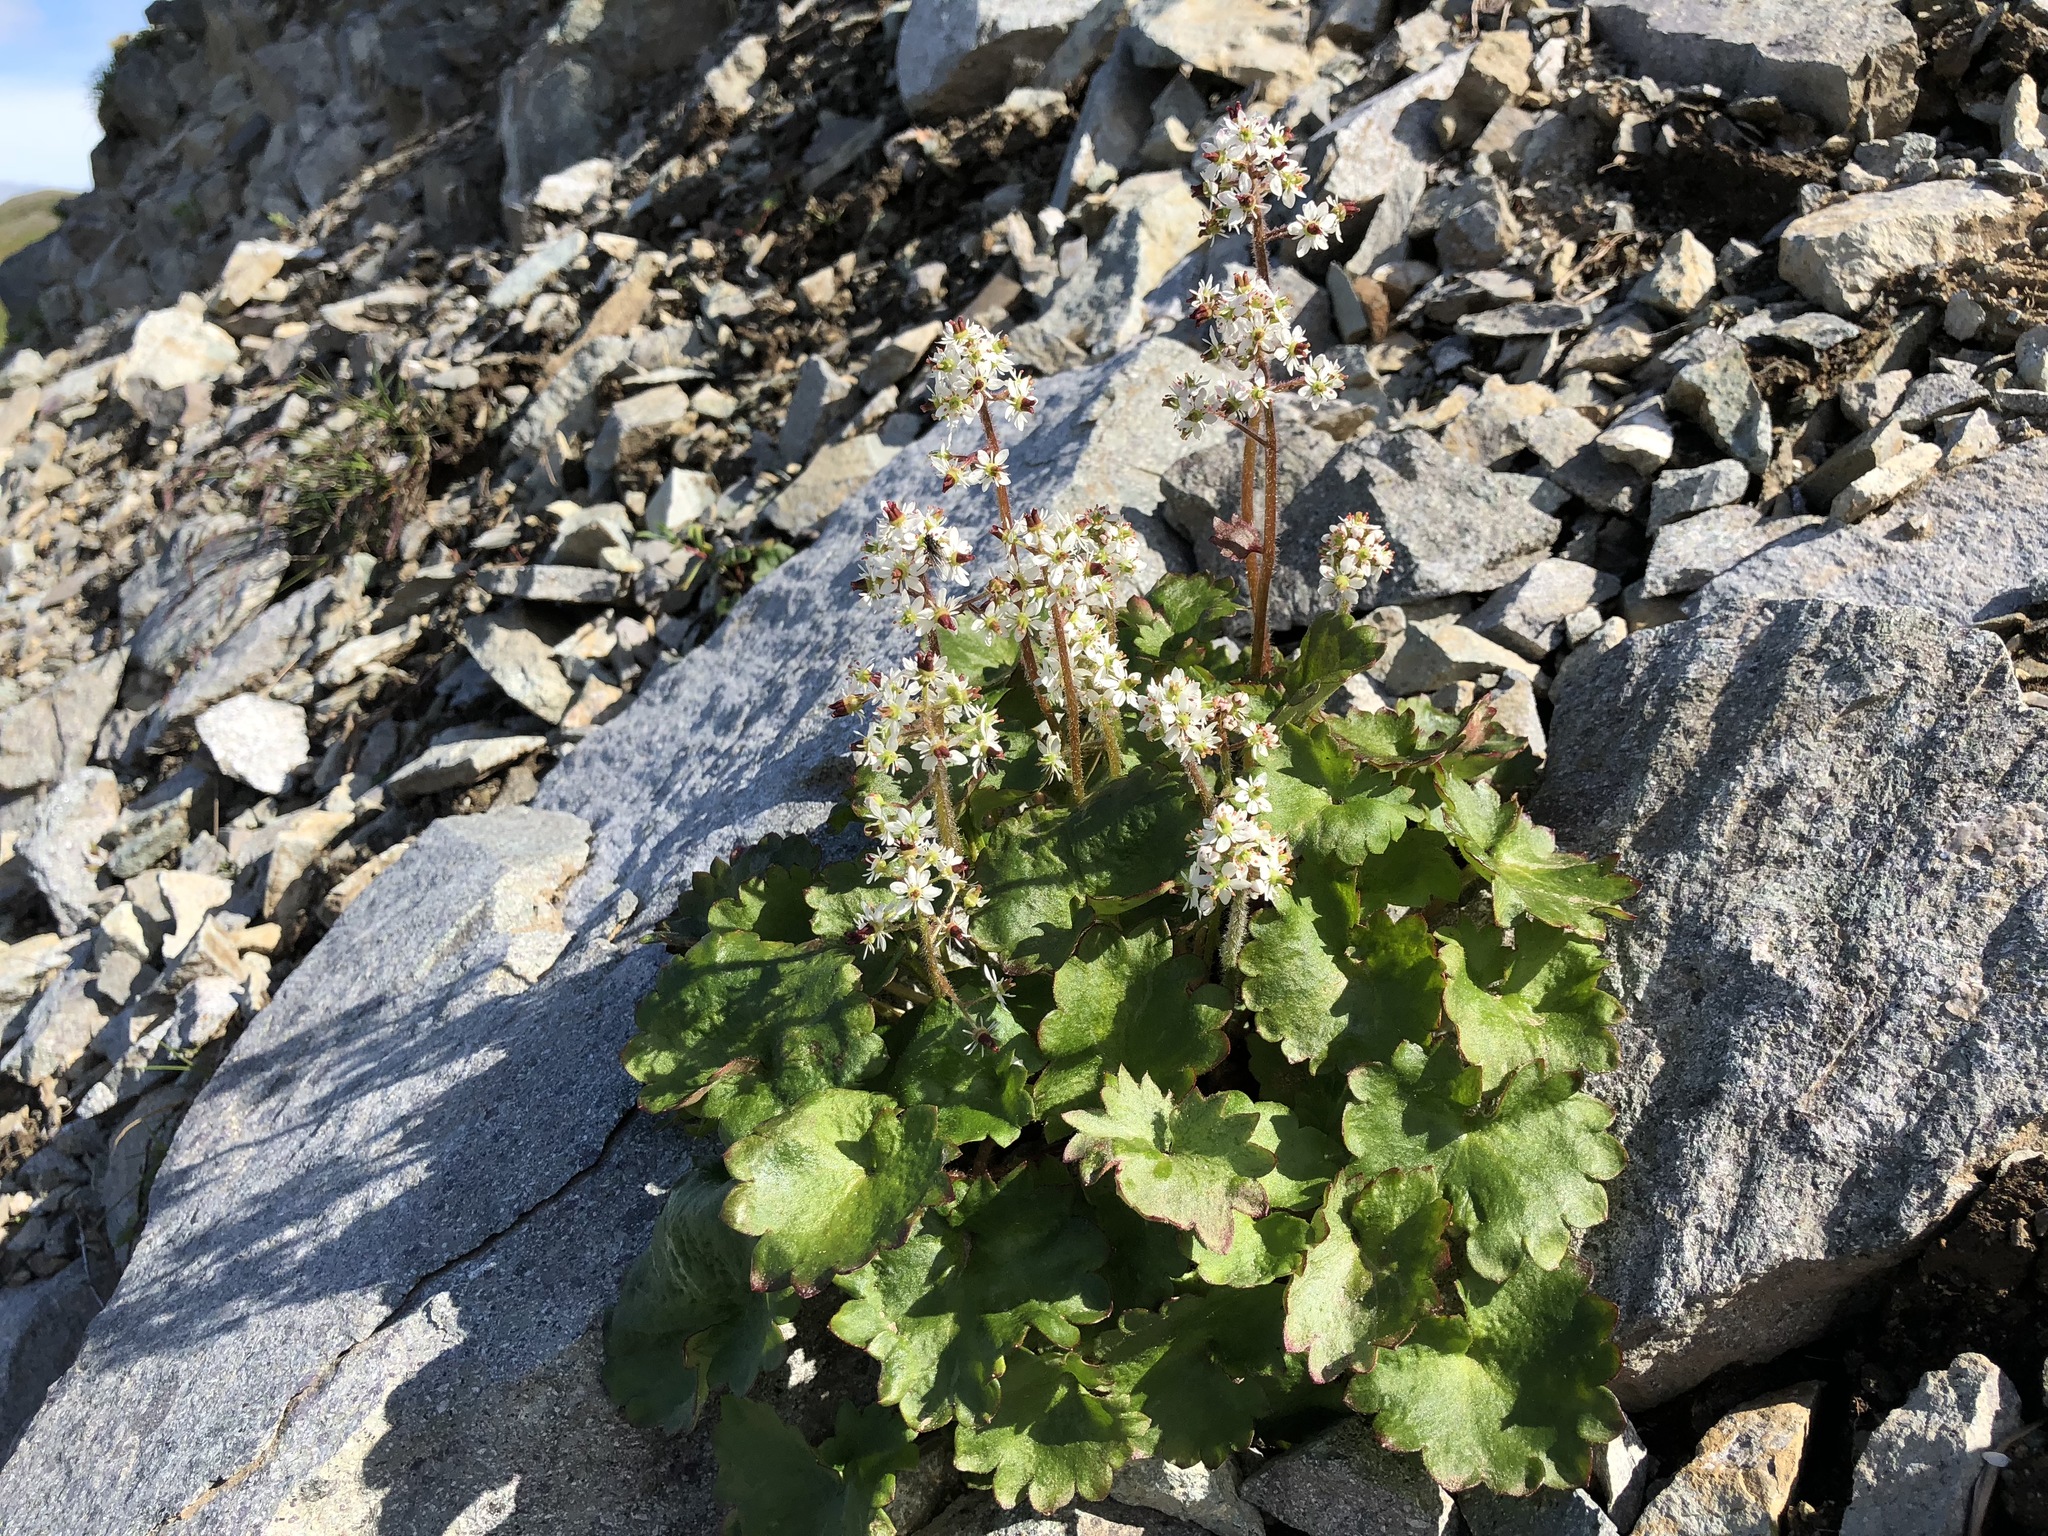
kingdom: Plantae
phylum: Tracheophyta
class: Magnoliopsida
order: Saxifragales
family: Saxifragaceae
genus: Micranthes
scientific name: Micranthes nelsoniana
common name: Nelson's saxifrage
